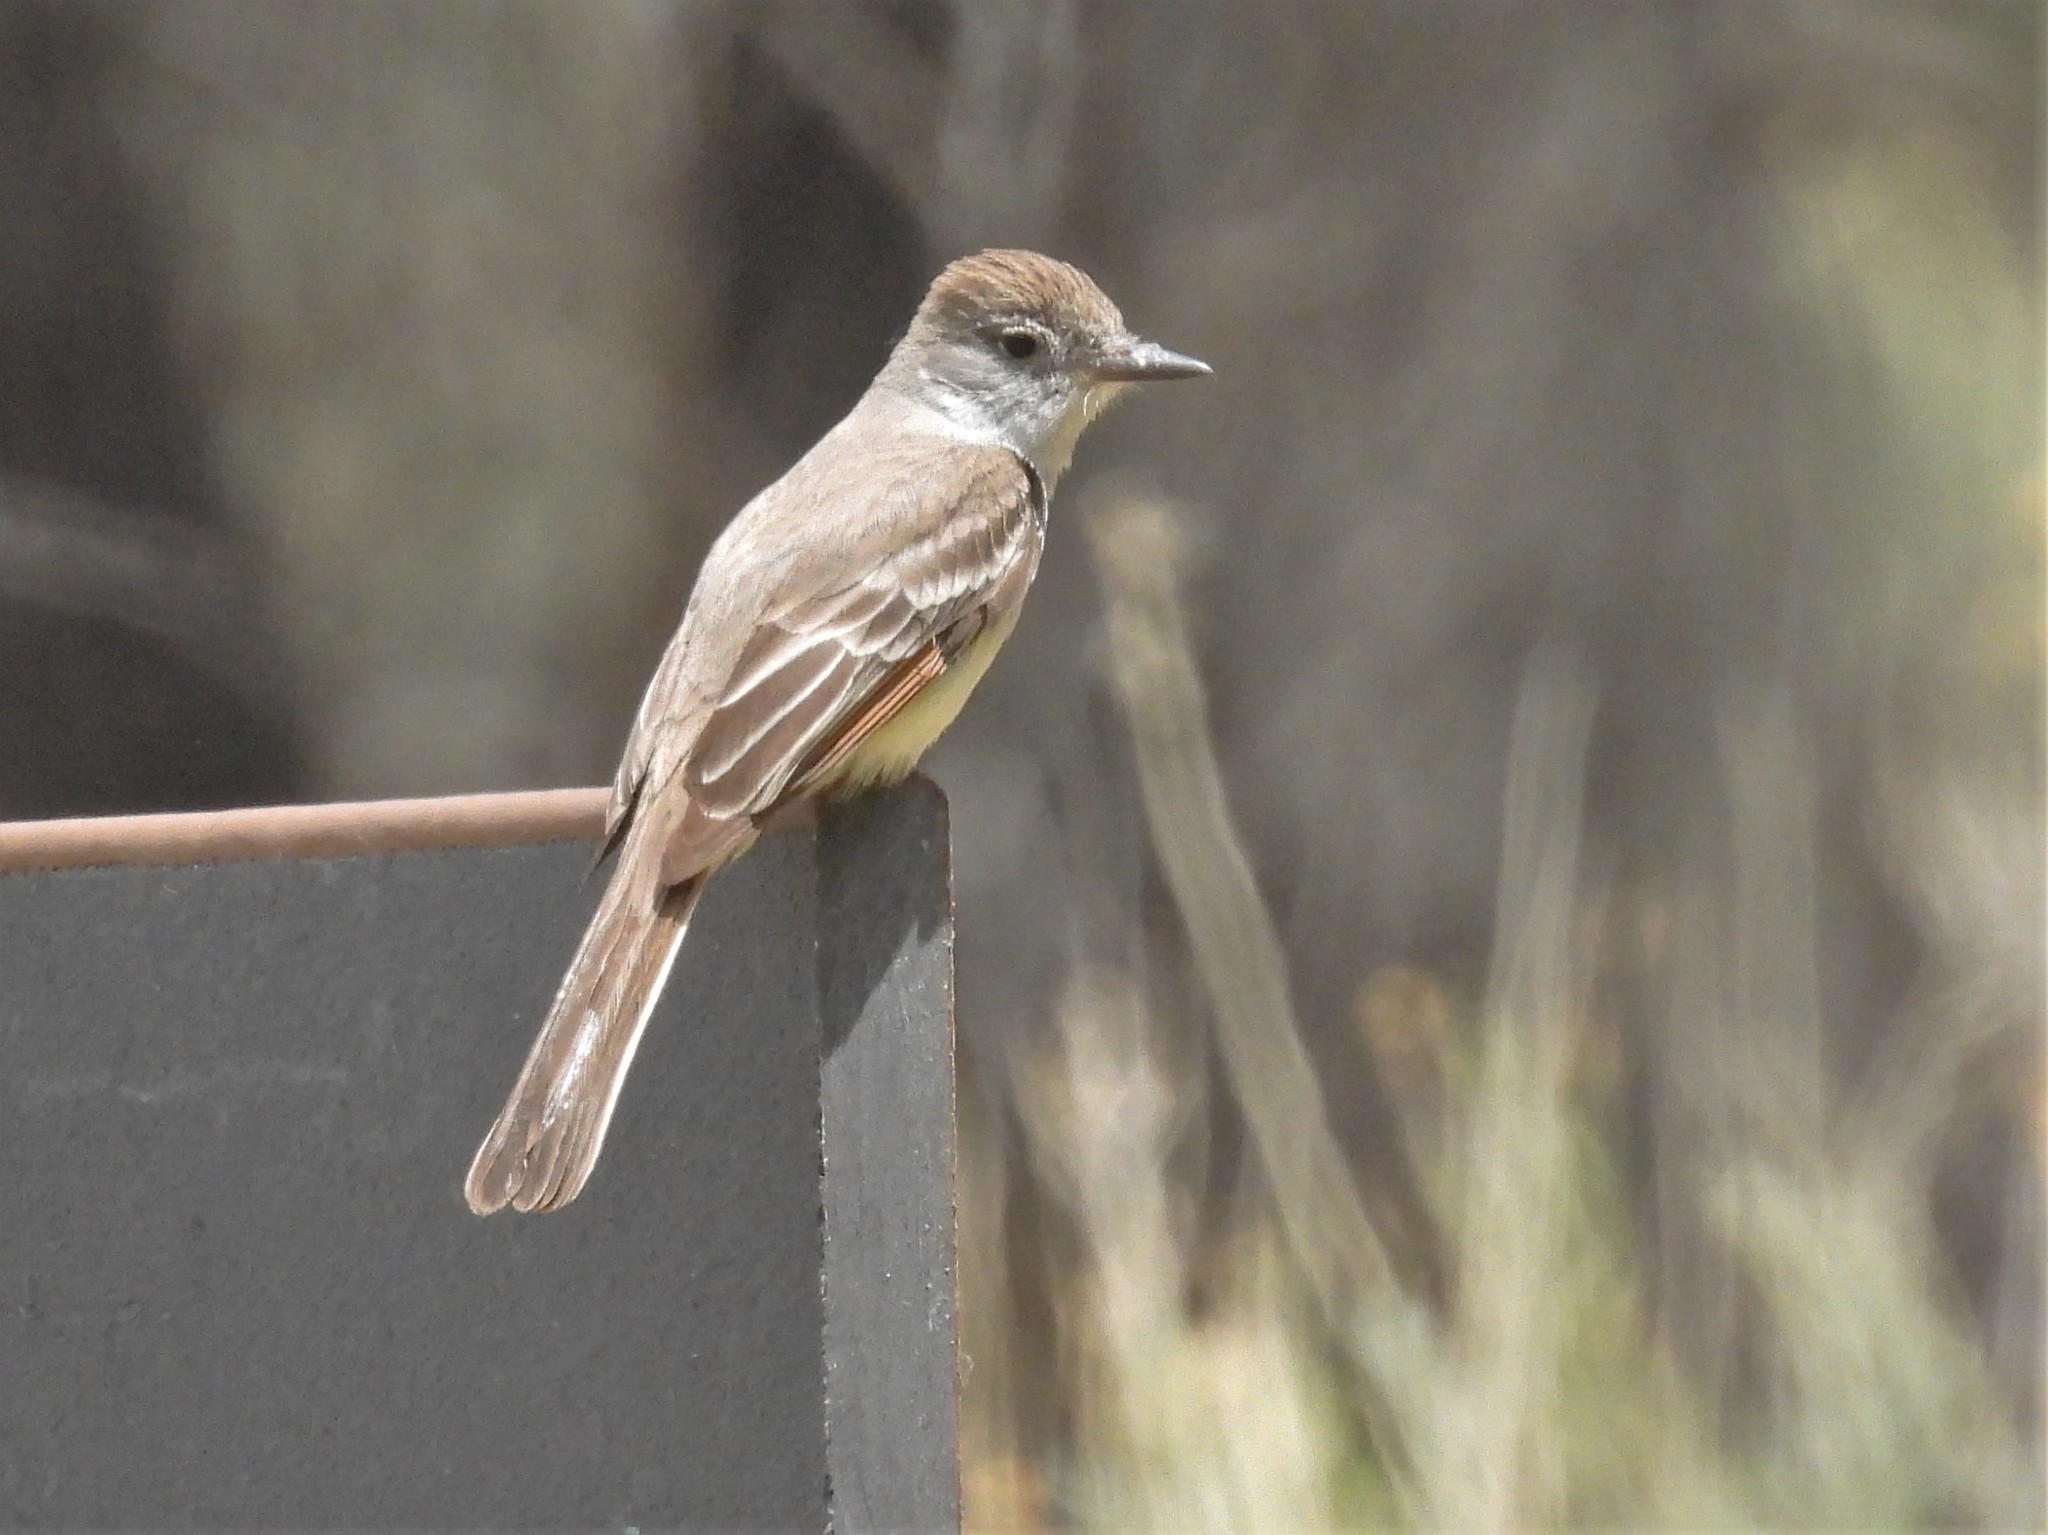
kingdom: Animalia
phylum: Chordata
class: Aves
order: Passeriformes
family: Tyrannidae
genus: Myiarchus
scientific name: Myiarchus cinerascens
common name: Ash-throated flycatcher
